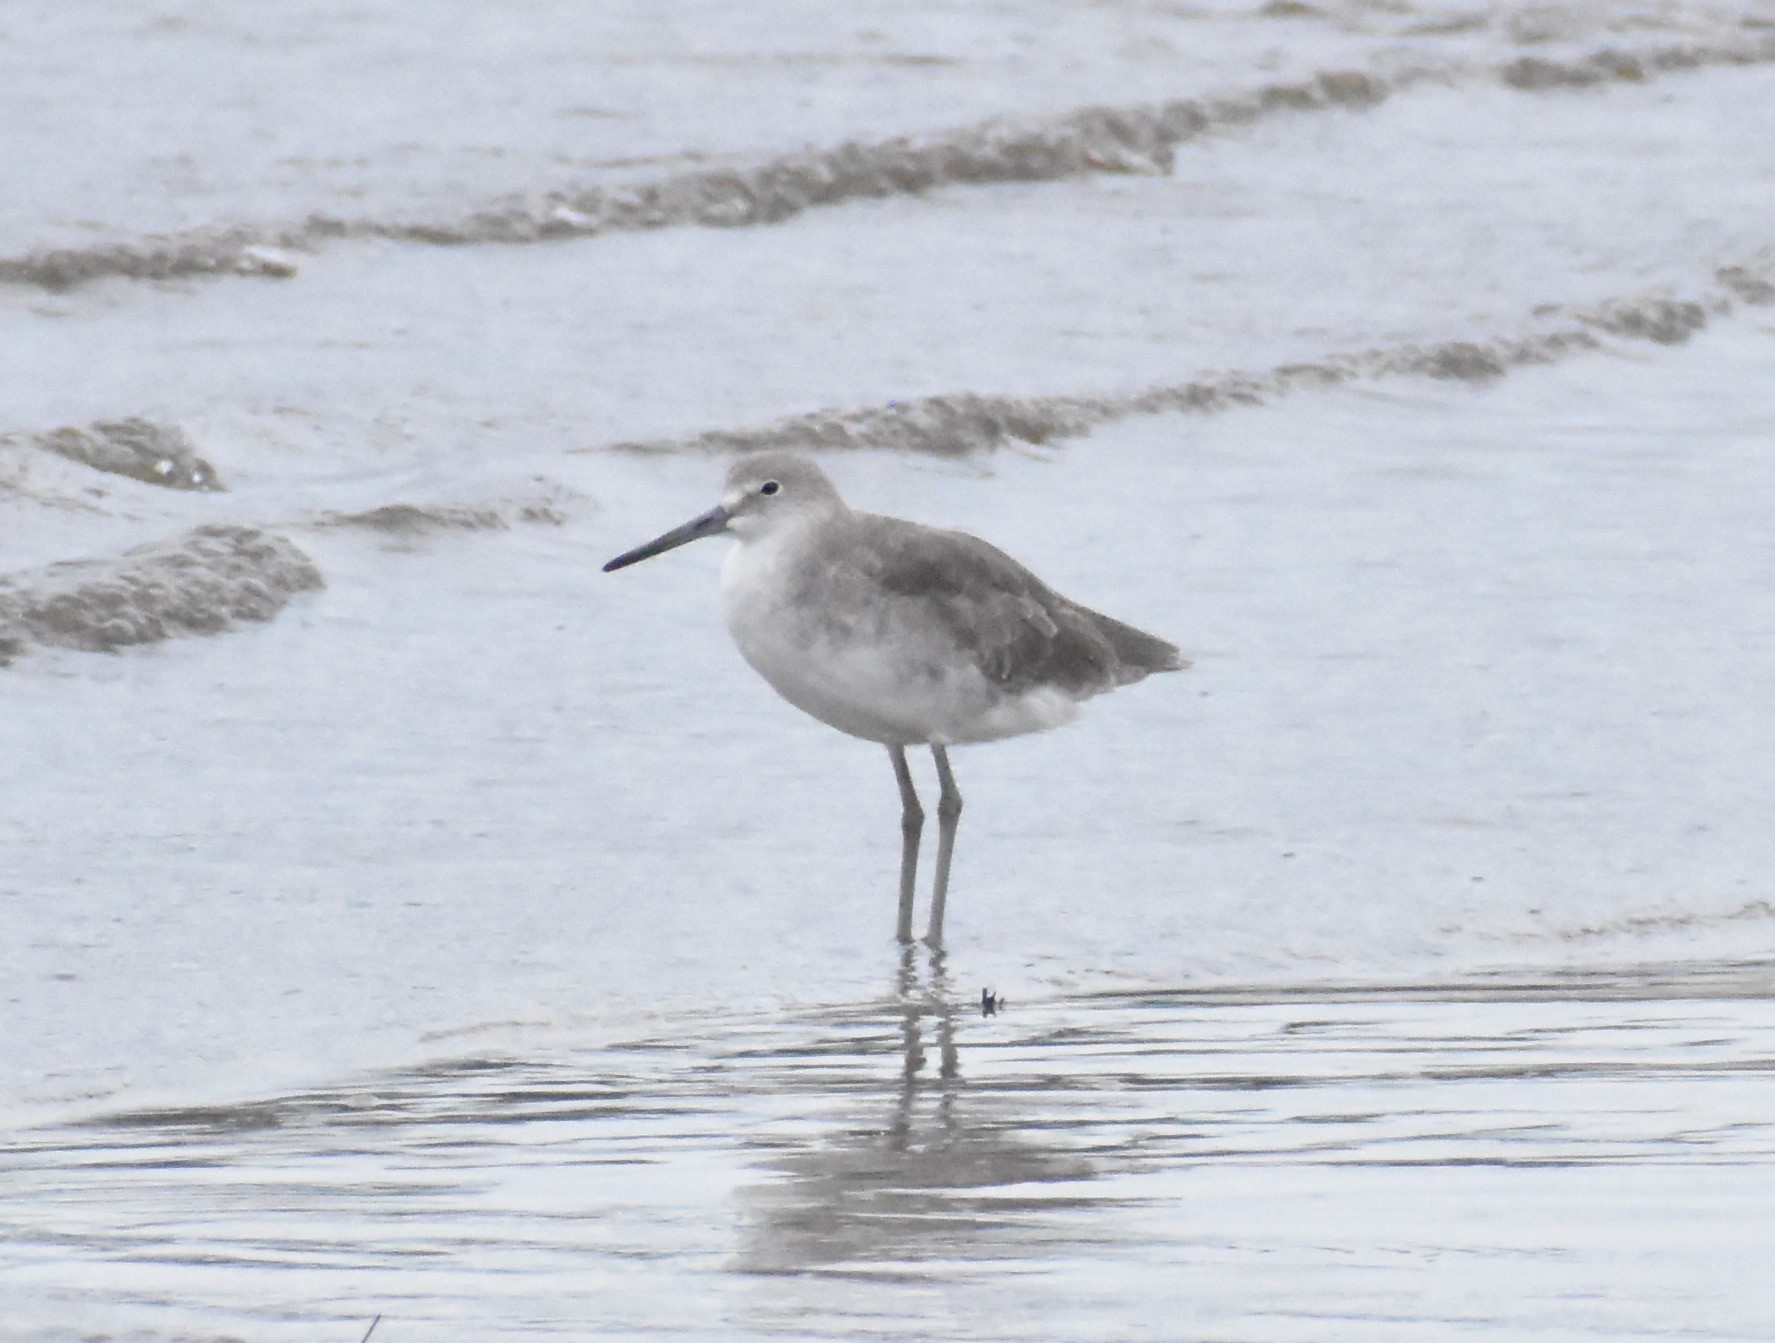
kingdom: Animalia
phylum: Chordata
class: Aves
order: Charadriiformes
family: Scolopacidae
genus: Tringa
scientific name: Tringa semipalmata
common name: Willet
